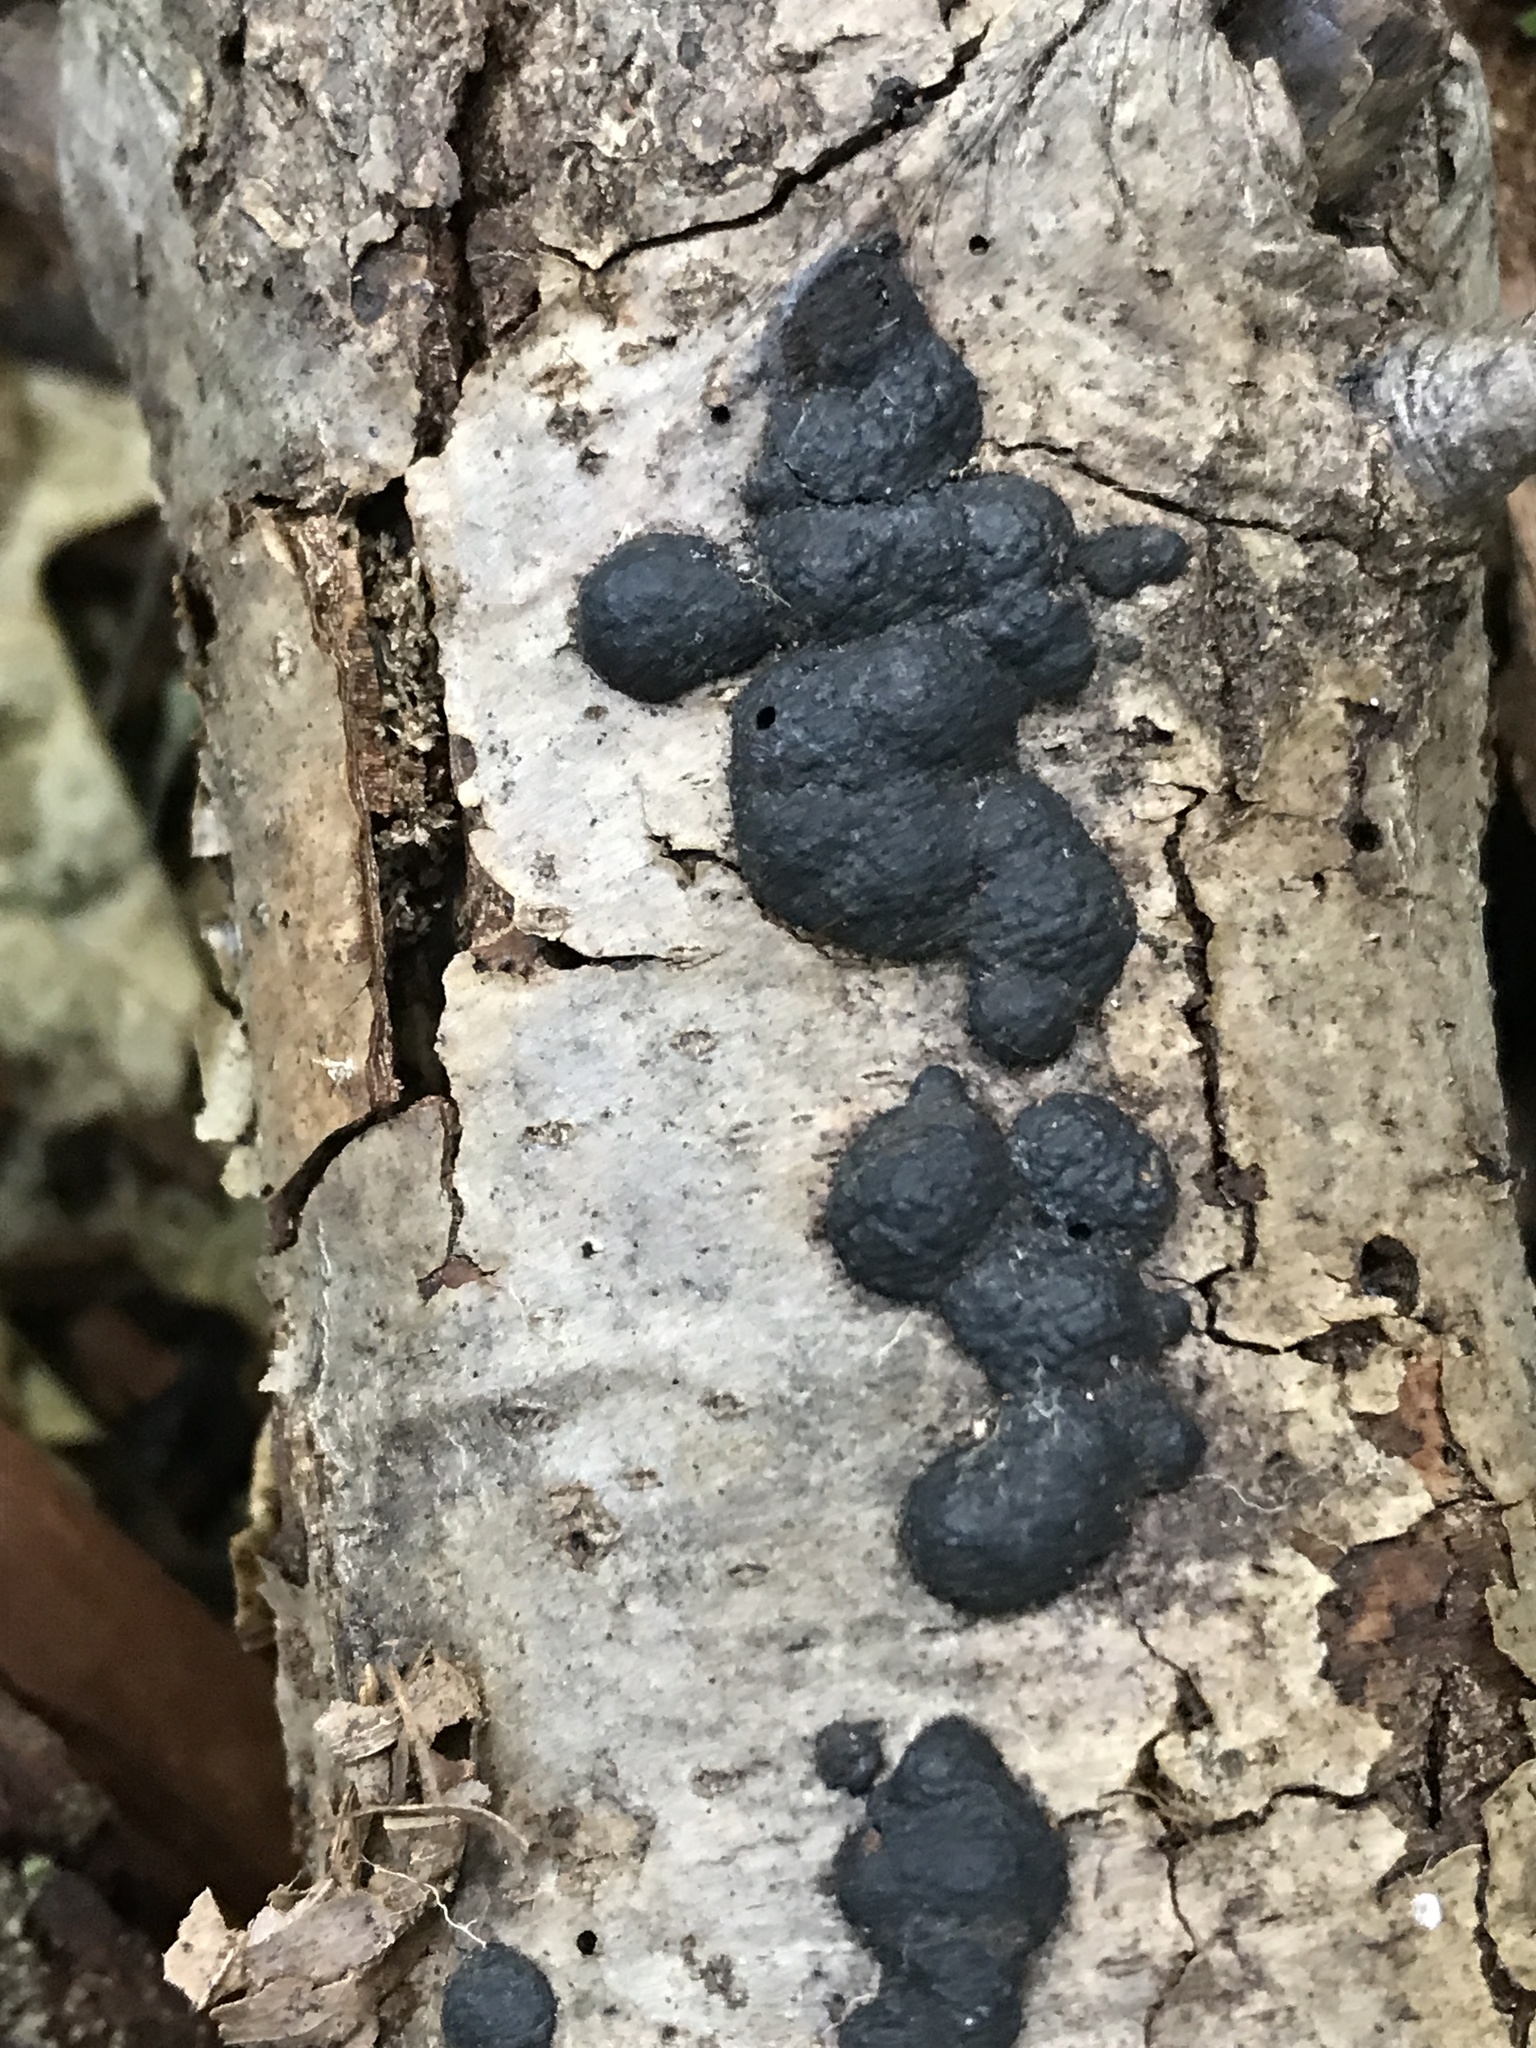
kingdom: Fungi
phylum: Ascomycota
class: Sordariomycetes
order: Xylariales
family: Hypoxylaceae
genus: Hypoxylon
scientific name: Hypoxylon fuscum
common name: Hazel woodwart
